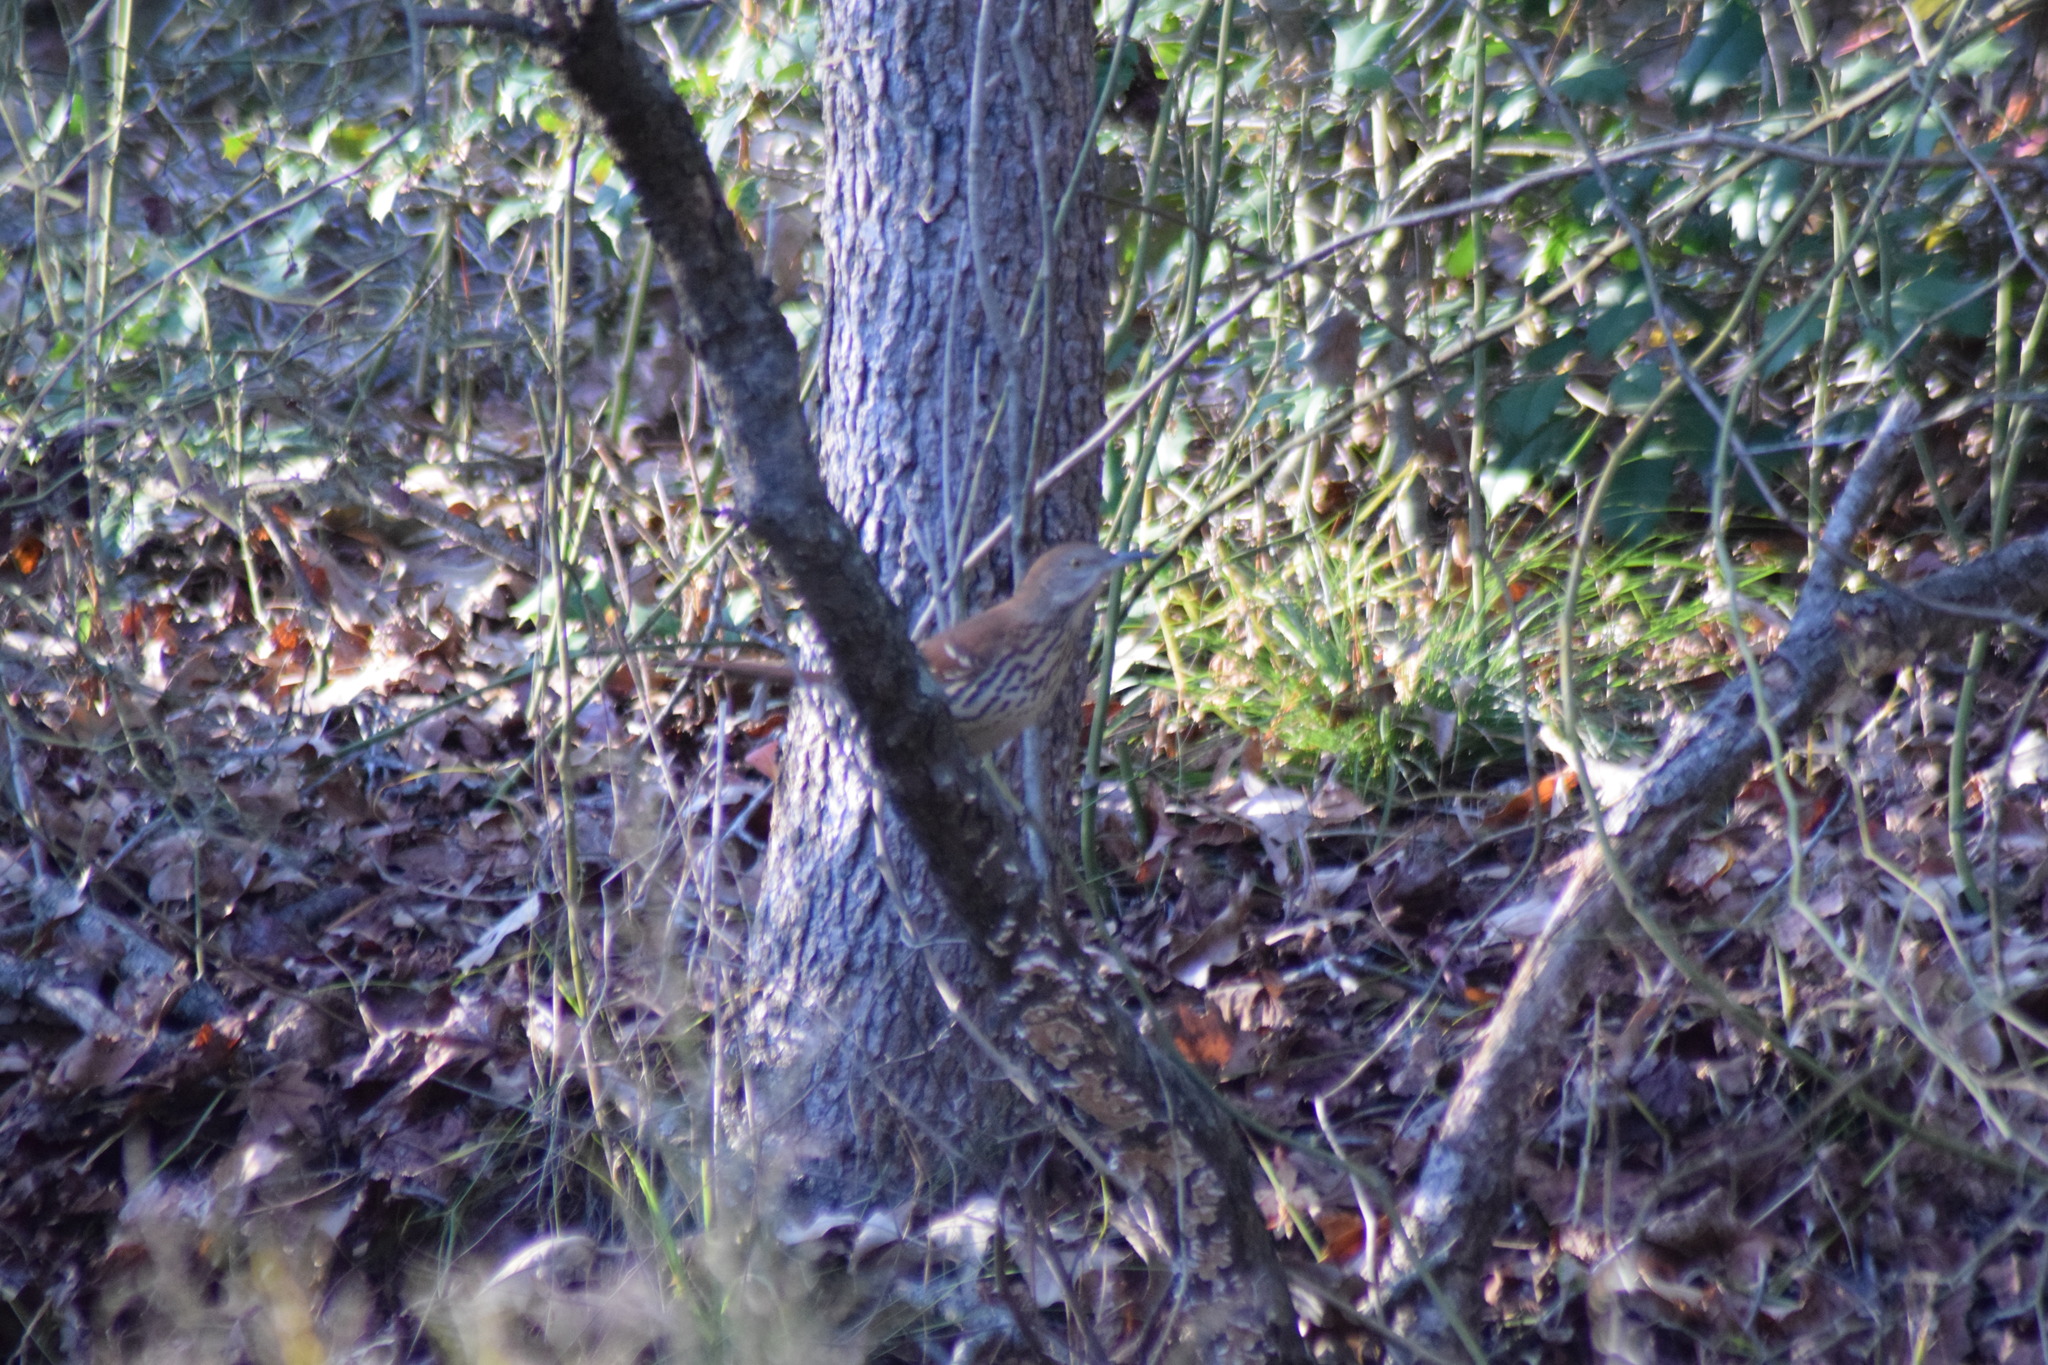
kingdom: Animalia
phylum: Chordata
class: Aves
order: Passeriformes
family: Mimidae
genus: Toxostoma
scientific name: Toxostoma rufum
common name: Brown thrasher
